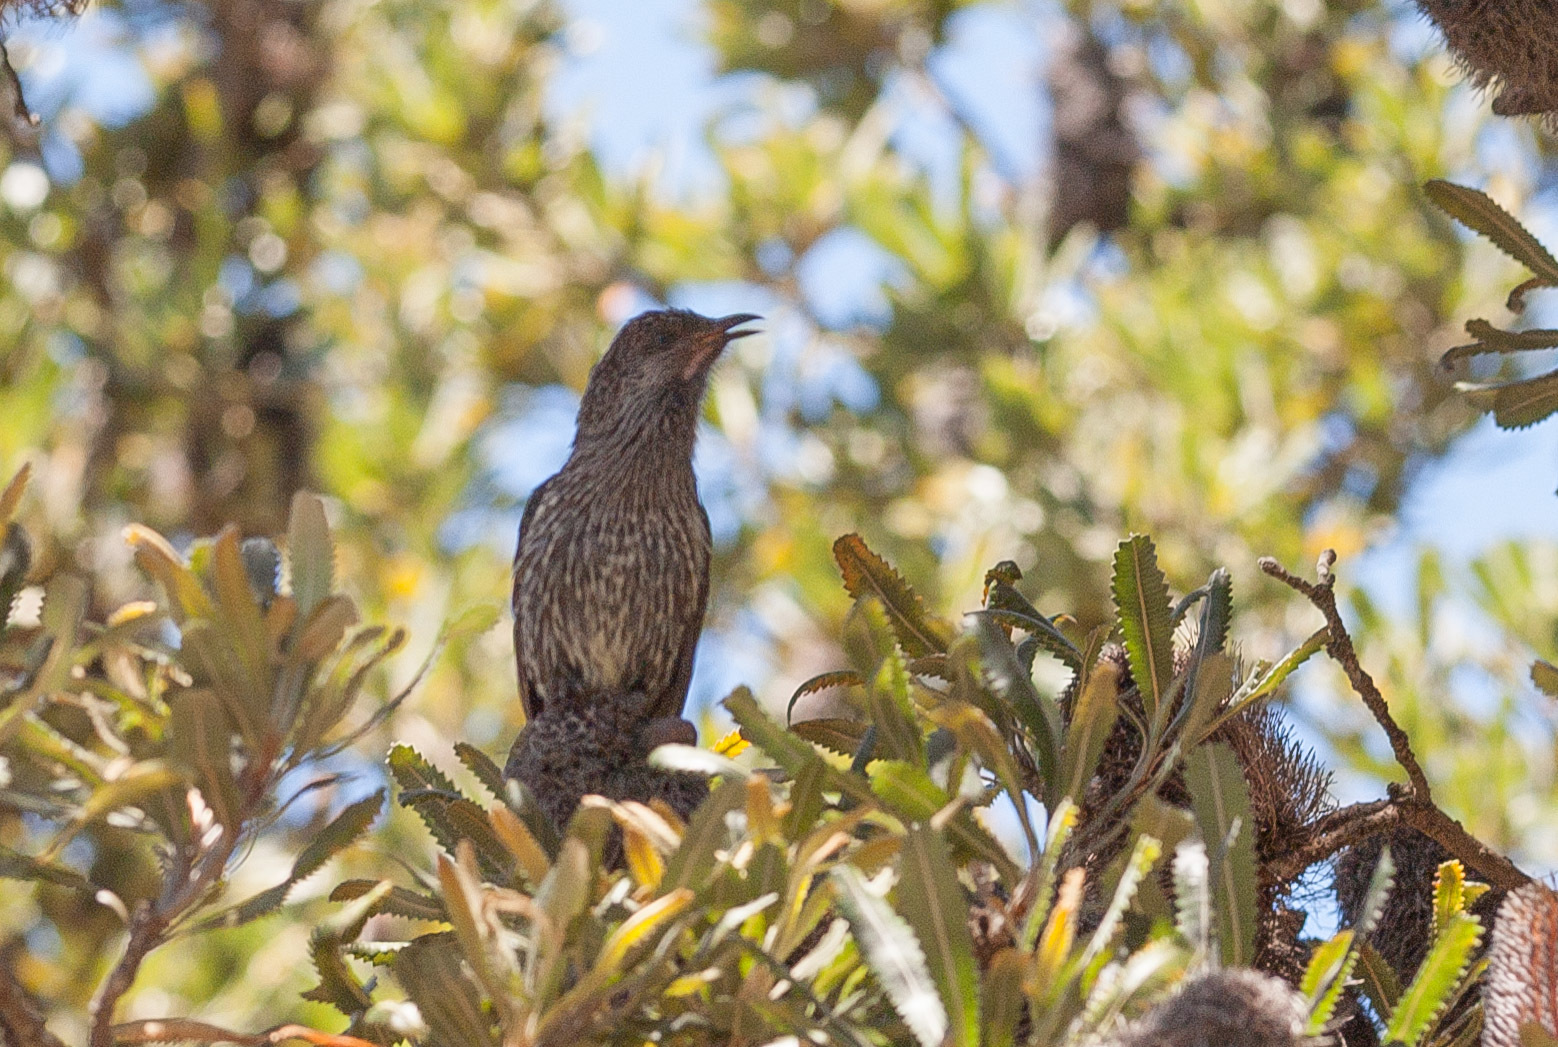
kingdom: Animalia
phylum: Chordata
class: Aves
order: Passeriformes
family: Meliphagidae
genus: Anthochaera
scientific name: Anthochaera chrysoptera
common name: Little wattlebird
